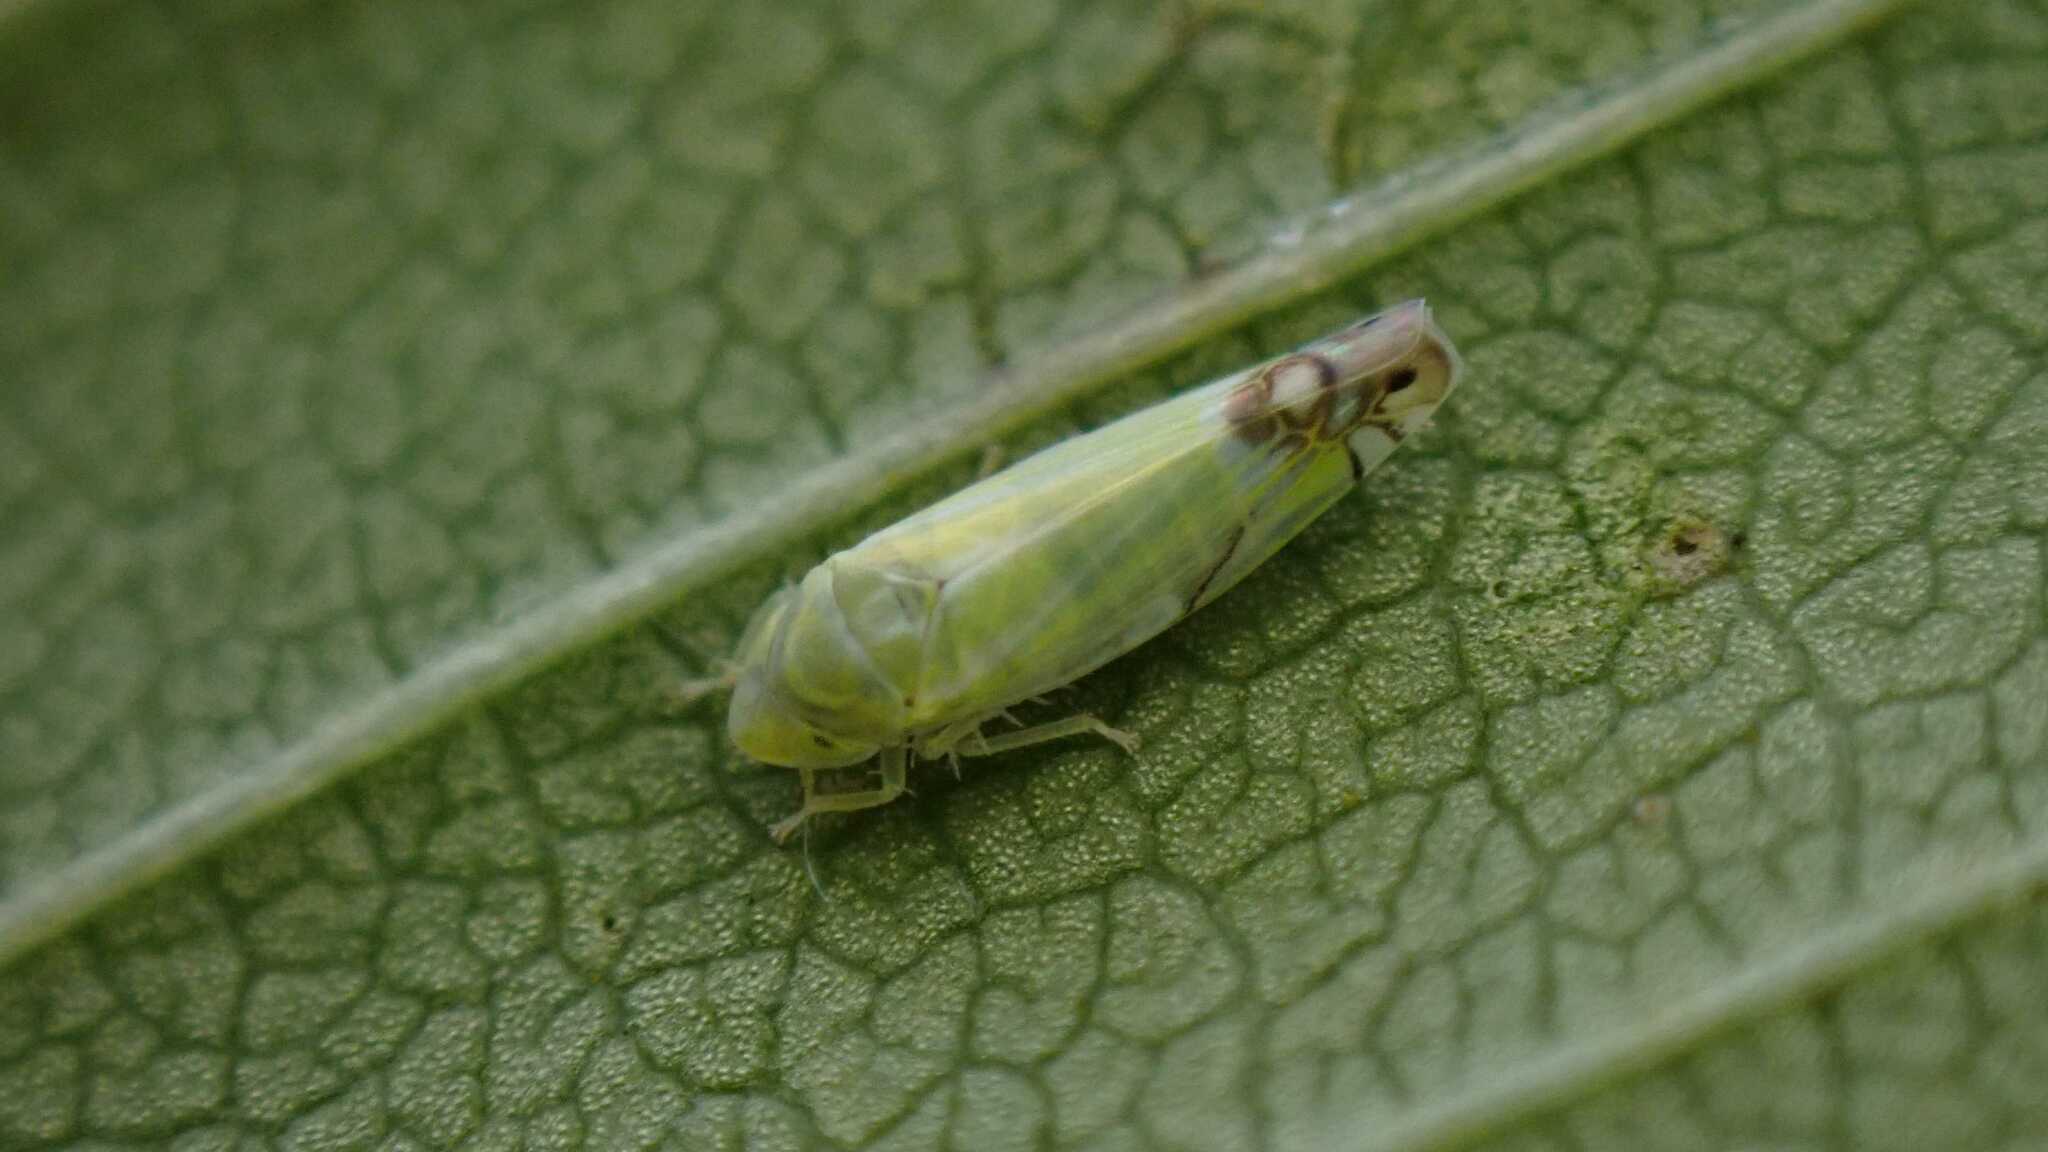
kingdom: Animalia
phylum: Arthropoda
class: Insecta
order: Hemiptera
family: Cicadellidae
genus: Zyginella
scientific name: Zyginella pulchra
